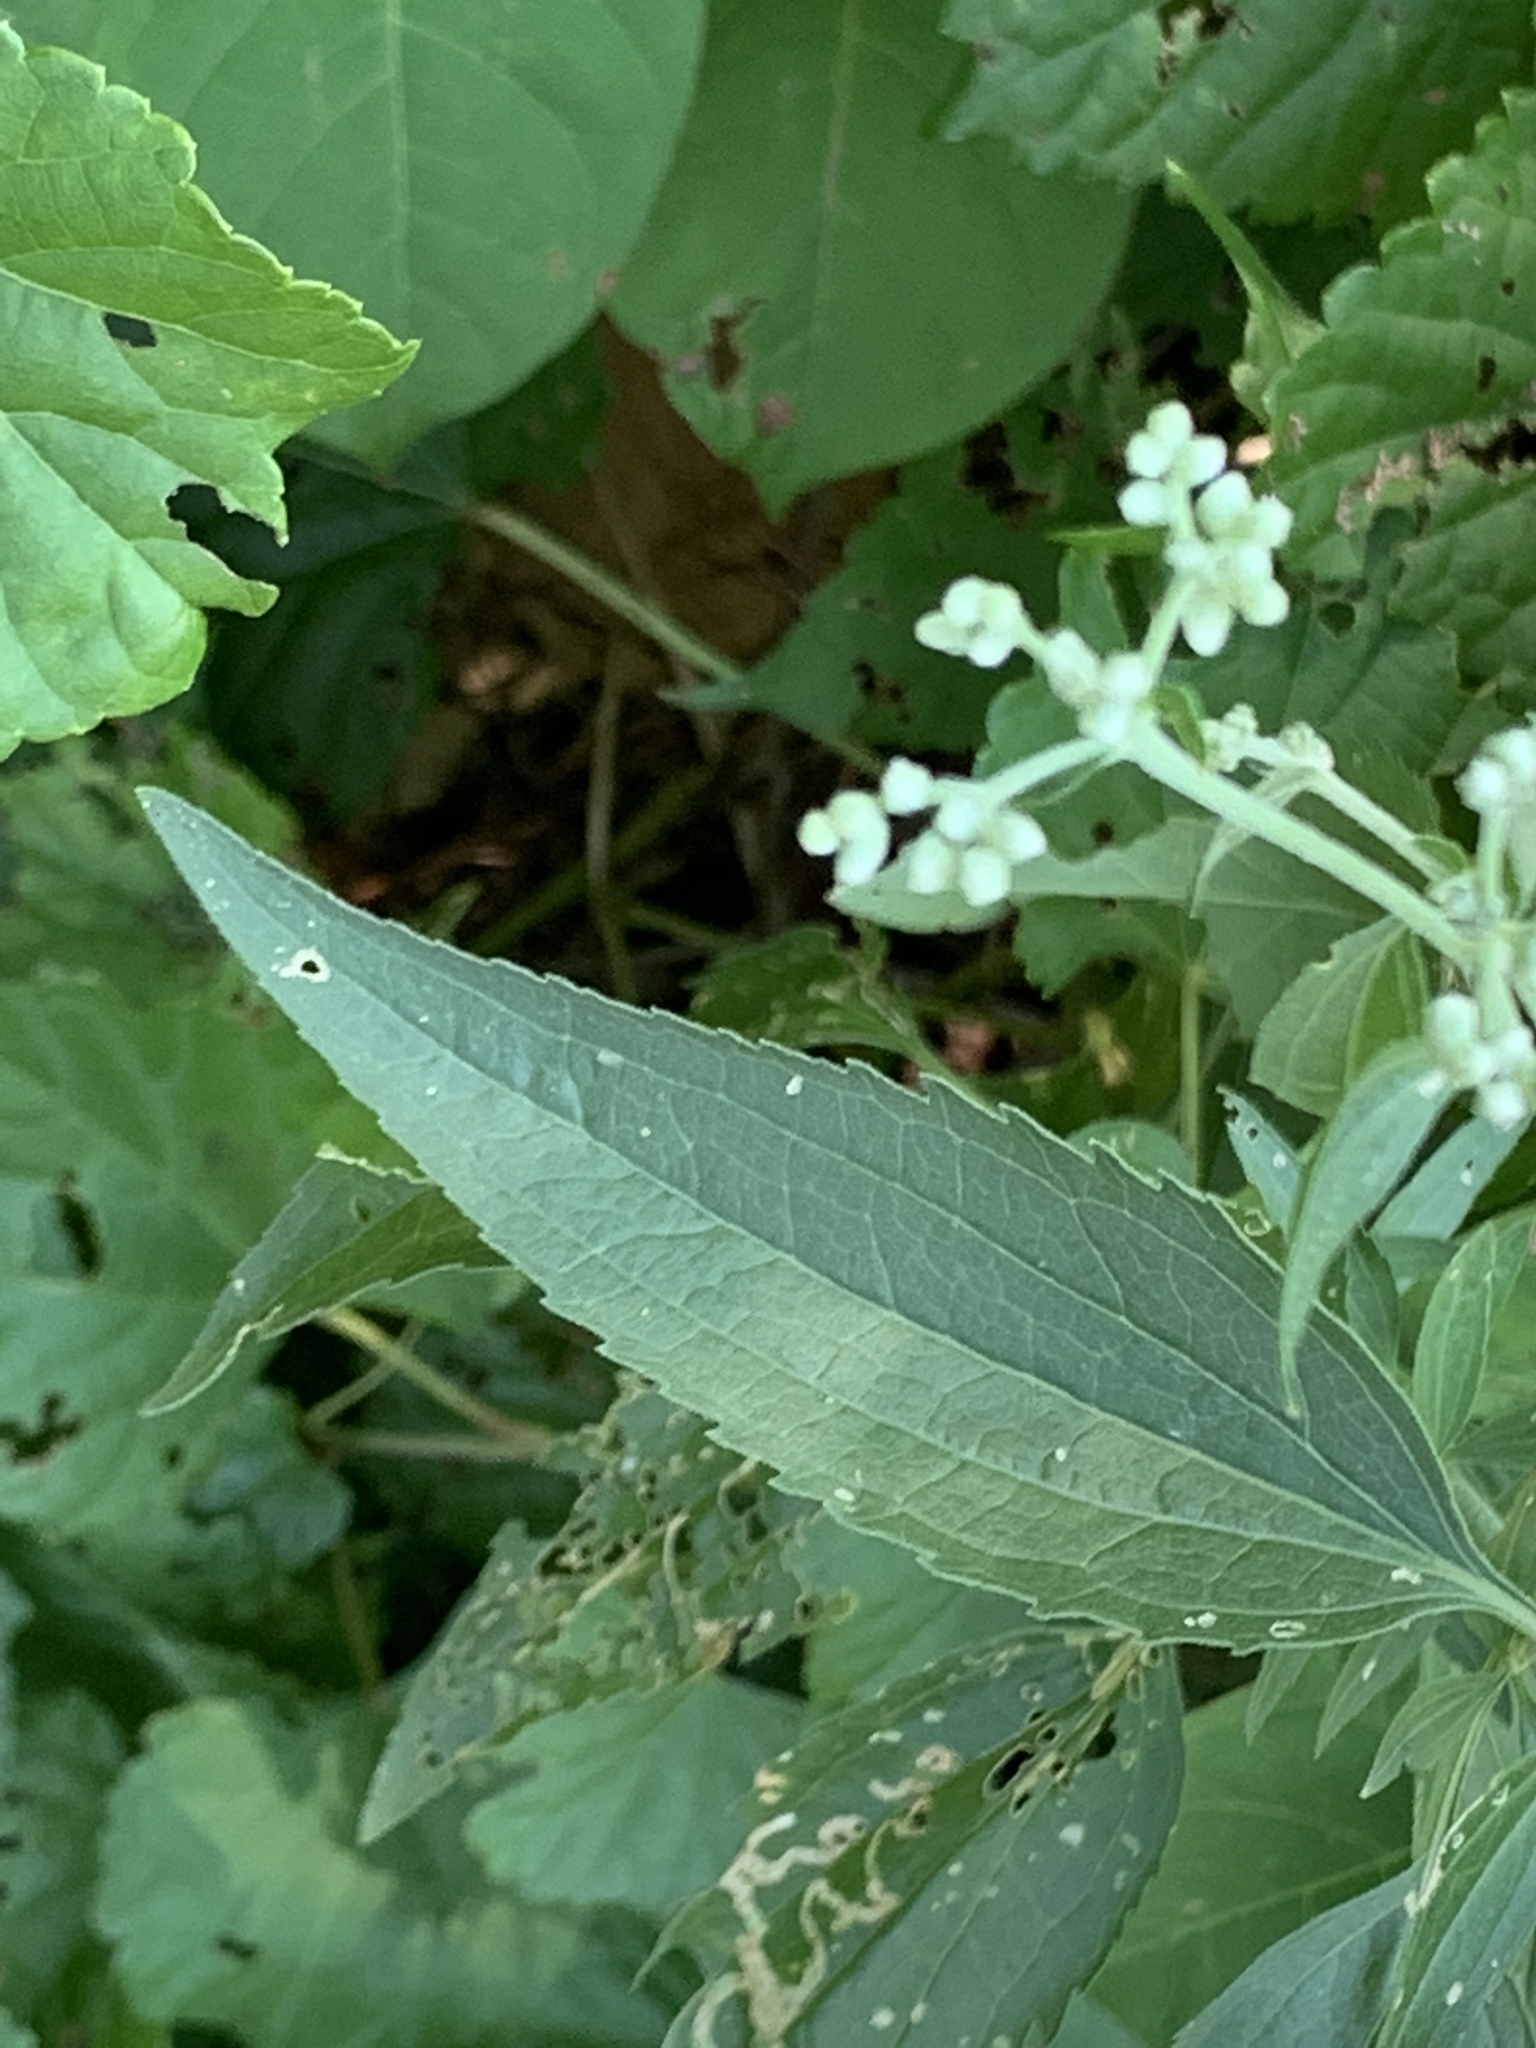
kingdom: Plantae
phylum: Tracheophyta
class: Magnoliopsida
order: Asterales
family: Asteraceae
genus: Eupatorium
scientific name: Eupatorium serotinum
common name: Late boneset
